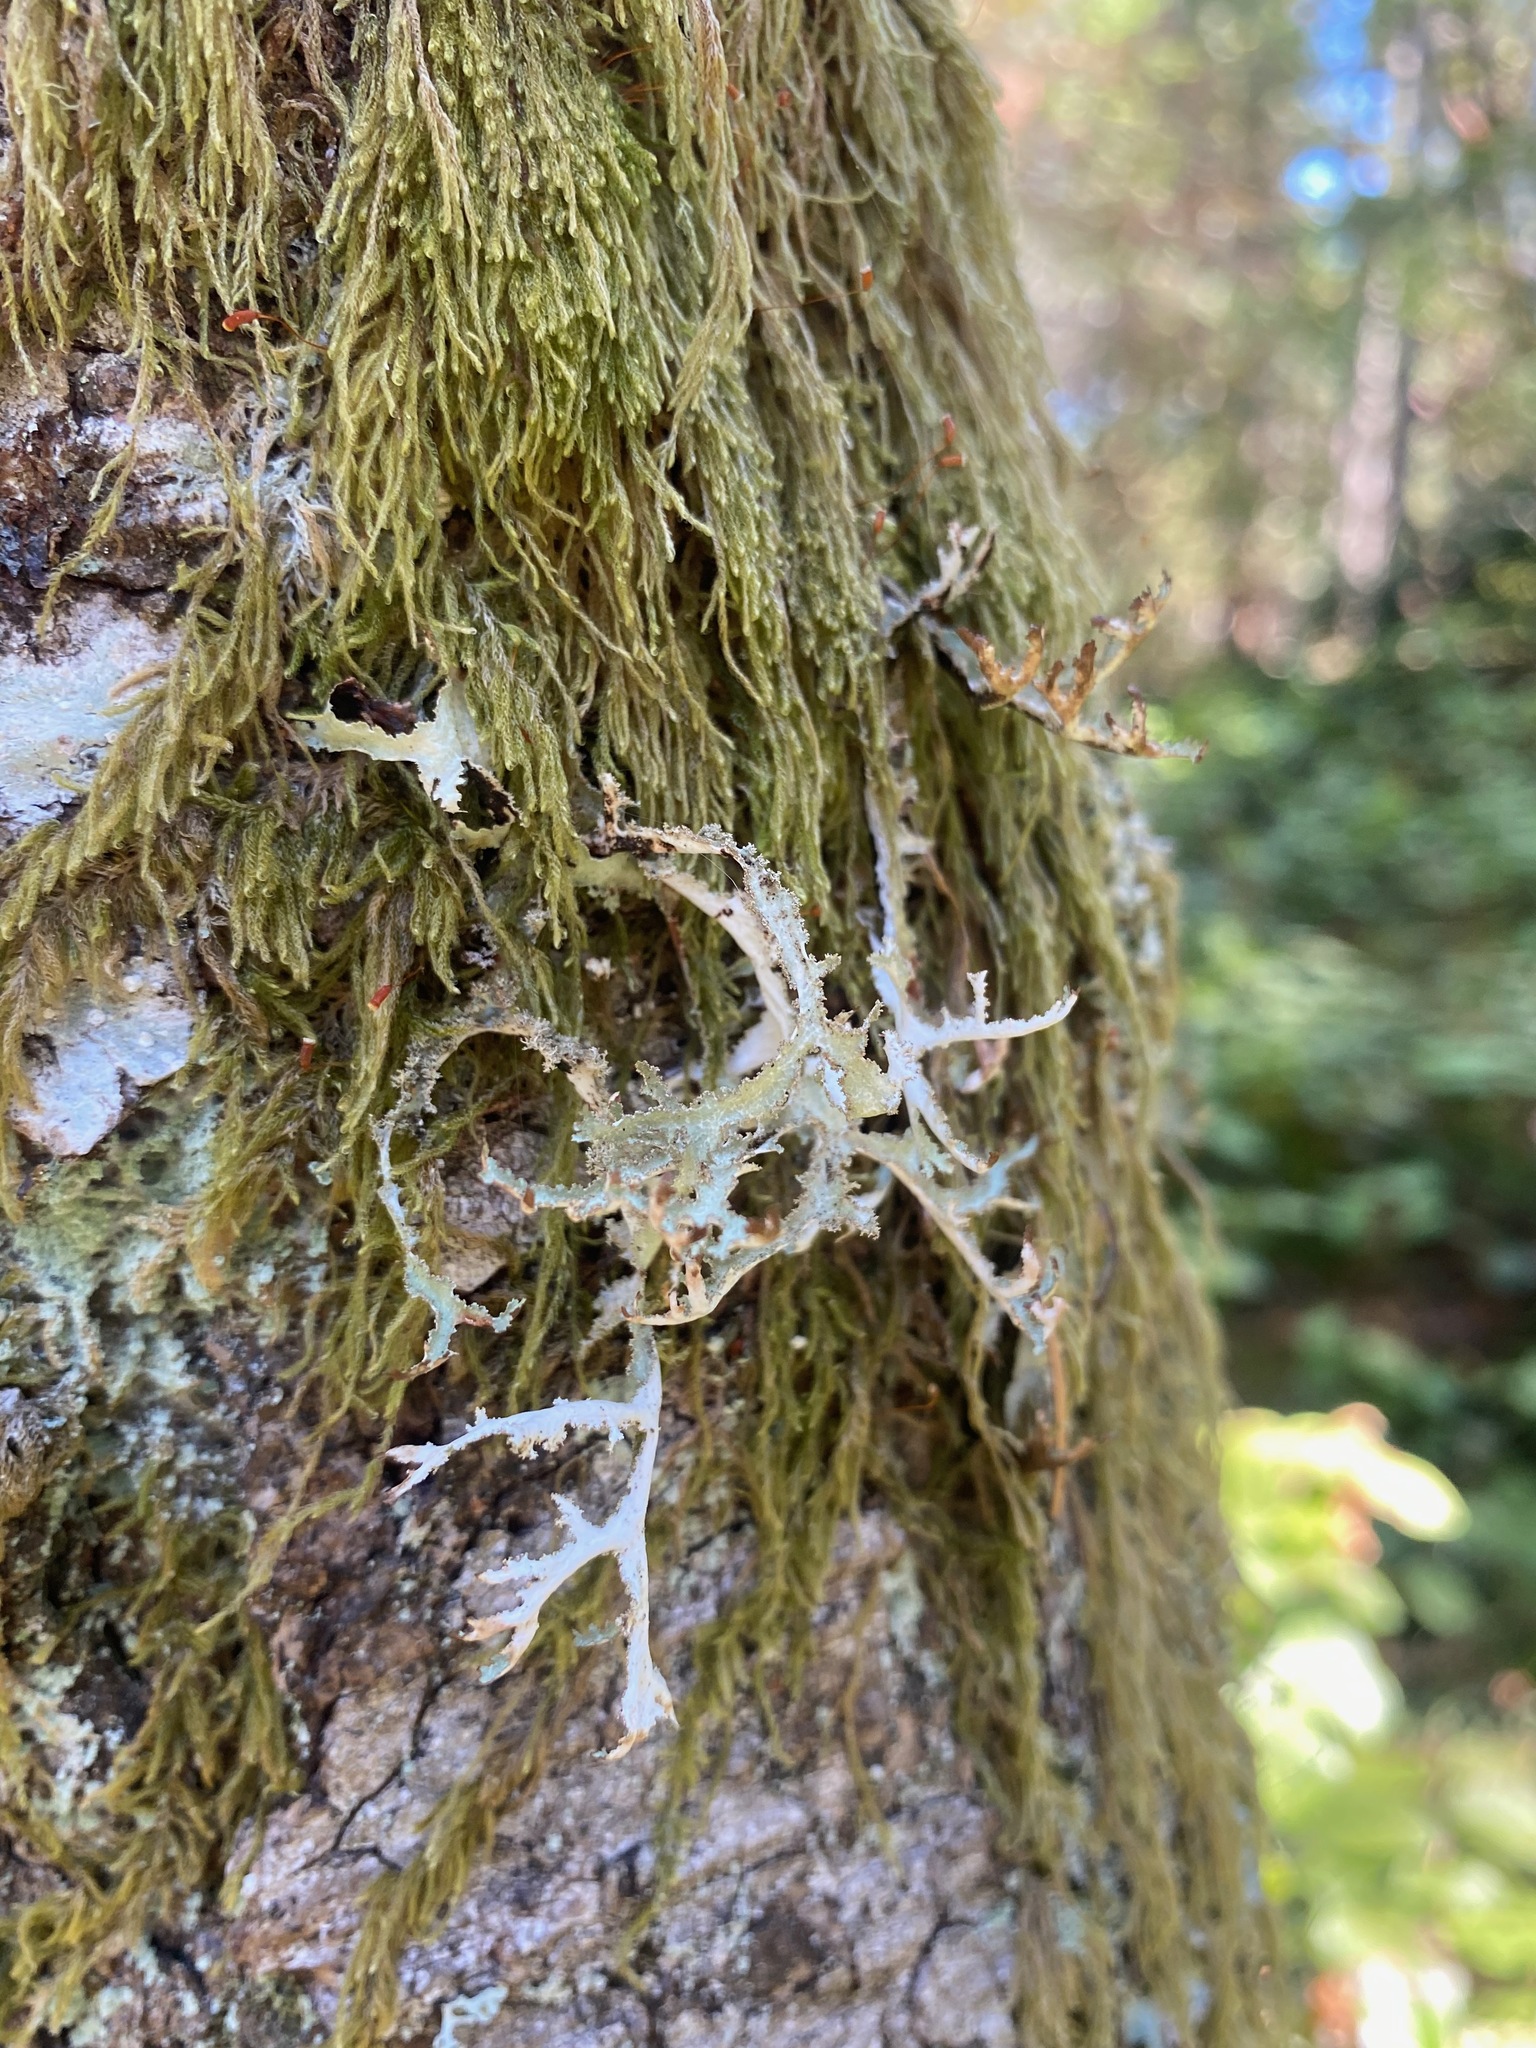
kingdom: Fungi
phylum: Ascomycota
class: Lecanoromycetes
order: Lecanorales
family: Parmeliaceae
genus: Platismatia
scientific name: Platismatia herrei
